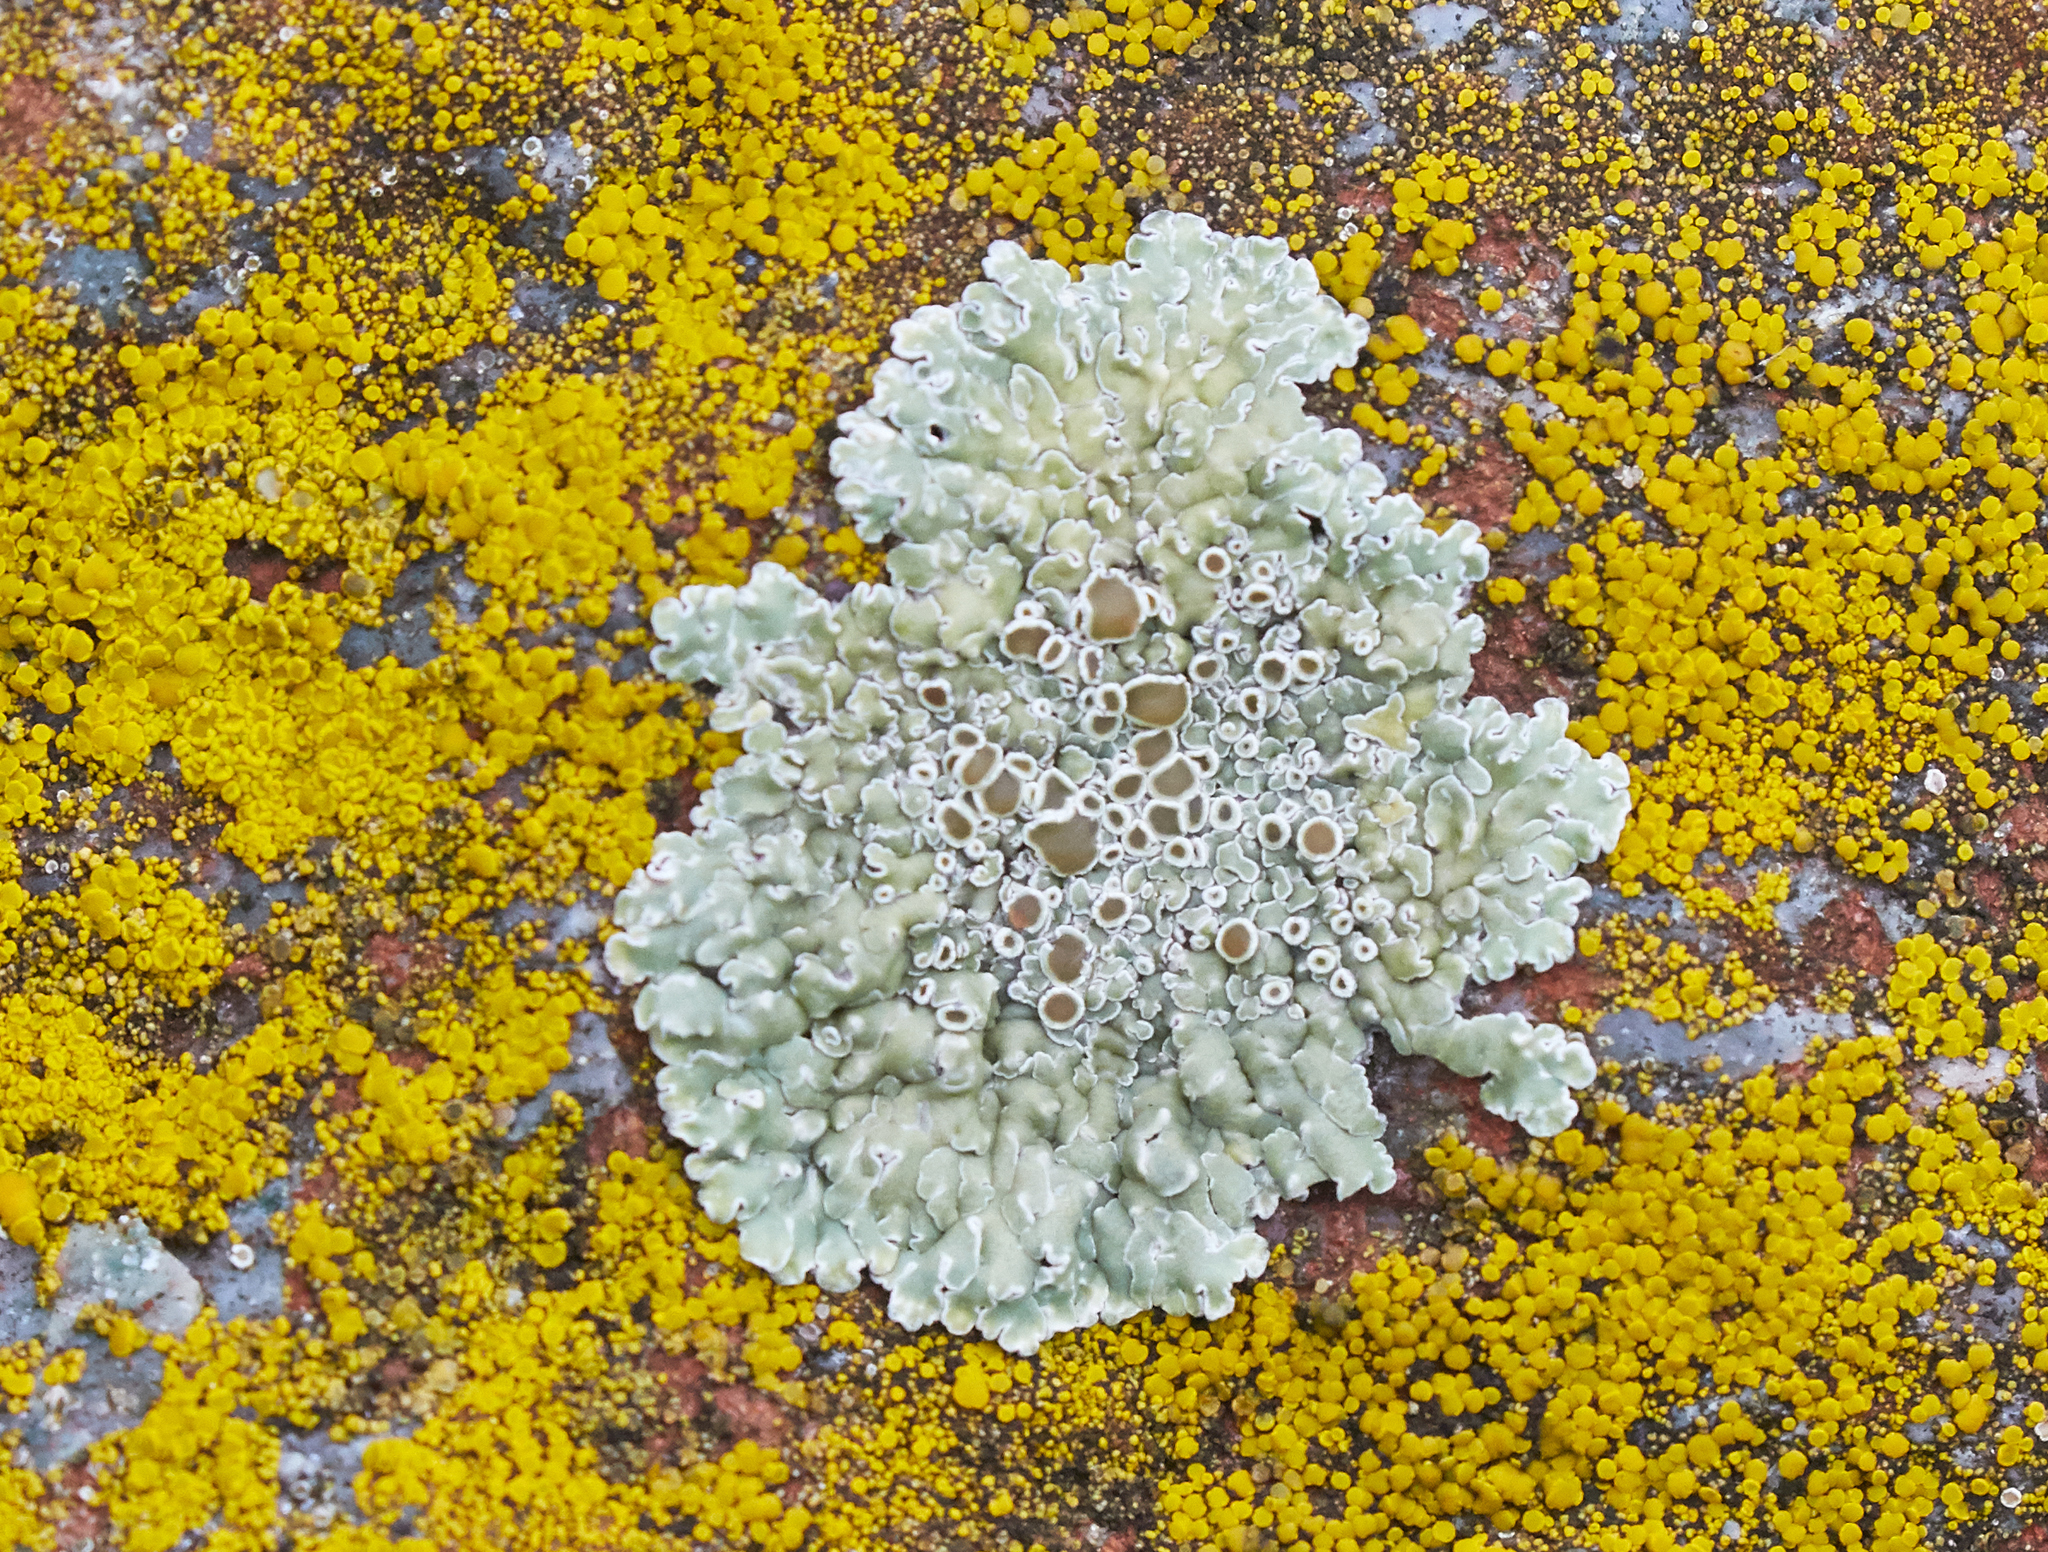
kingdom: Fungi
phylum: Ascomycota
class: Lecanoromycetes
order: Lecanorales
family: Lecanoraceae
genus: Protoparmeliopsis
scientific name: Protoparmeliopsis muralis
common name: Stonewall rim lichen
